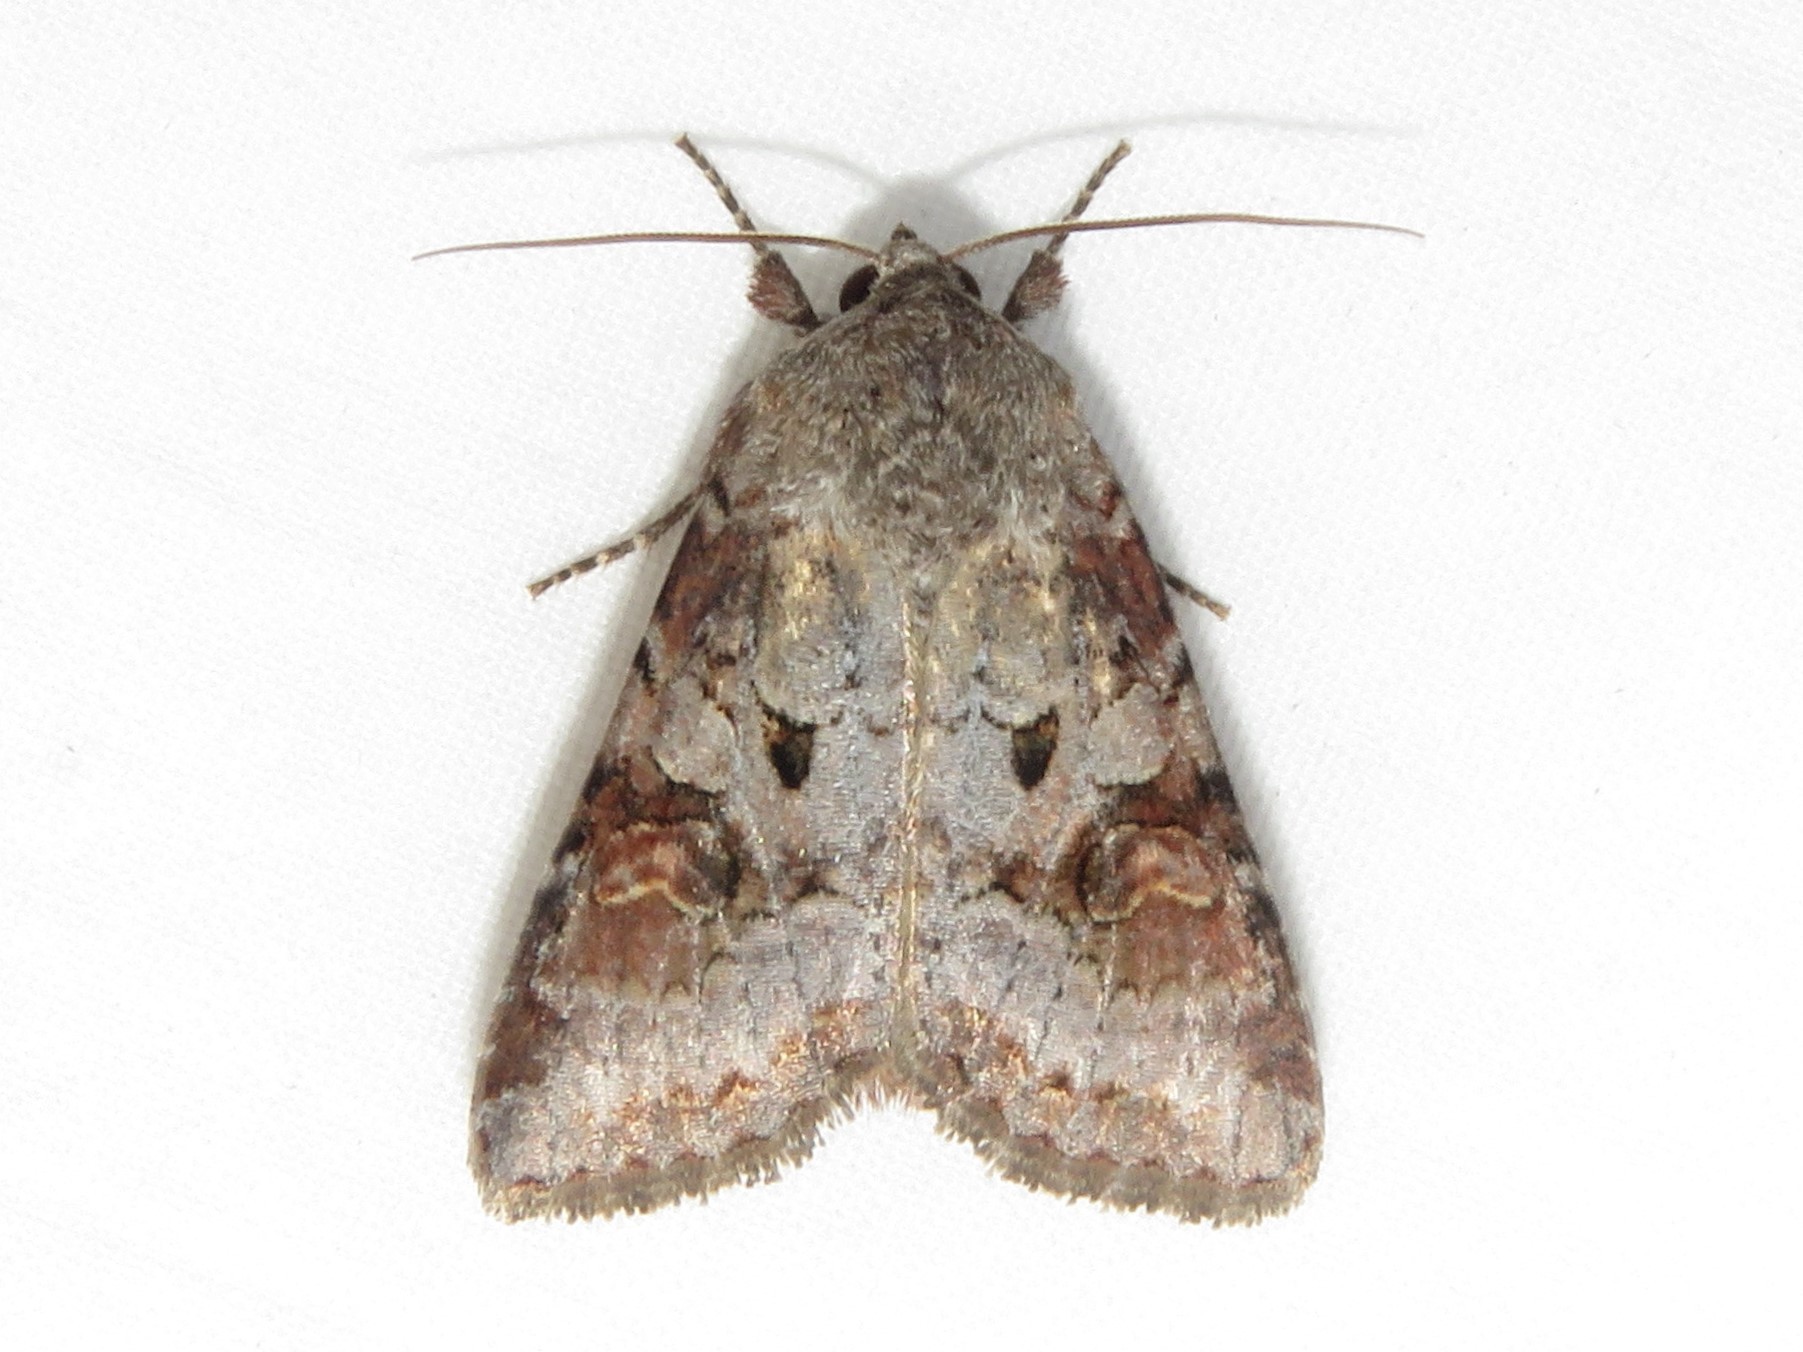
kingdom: Animalia
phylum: Arthropoda
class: Insecta
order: Lepidoptera
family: Noctuidae
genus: Trichordestra
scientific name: Trichordestra legitima
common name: Striped garden caterpillar
